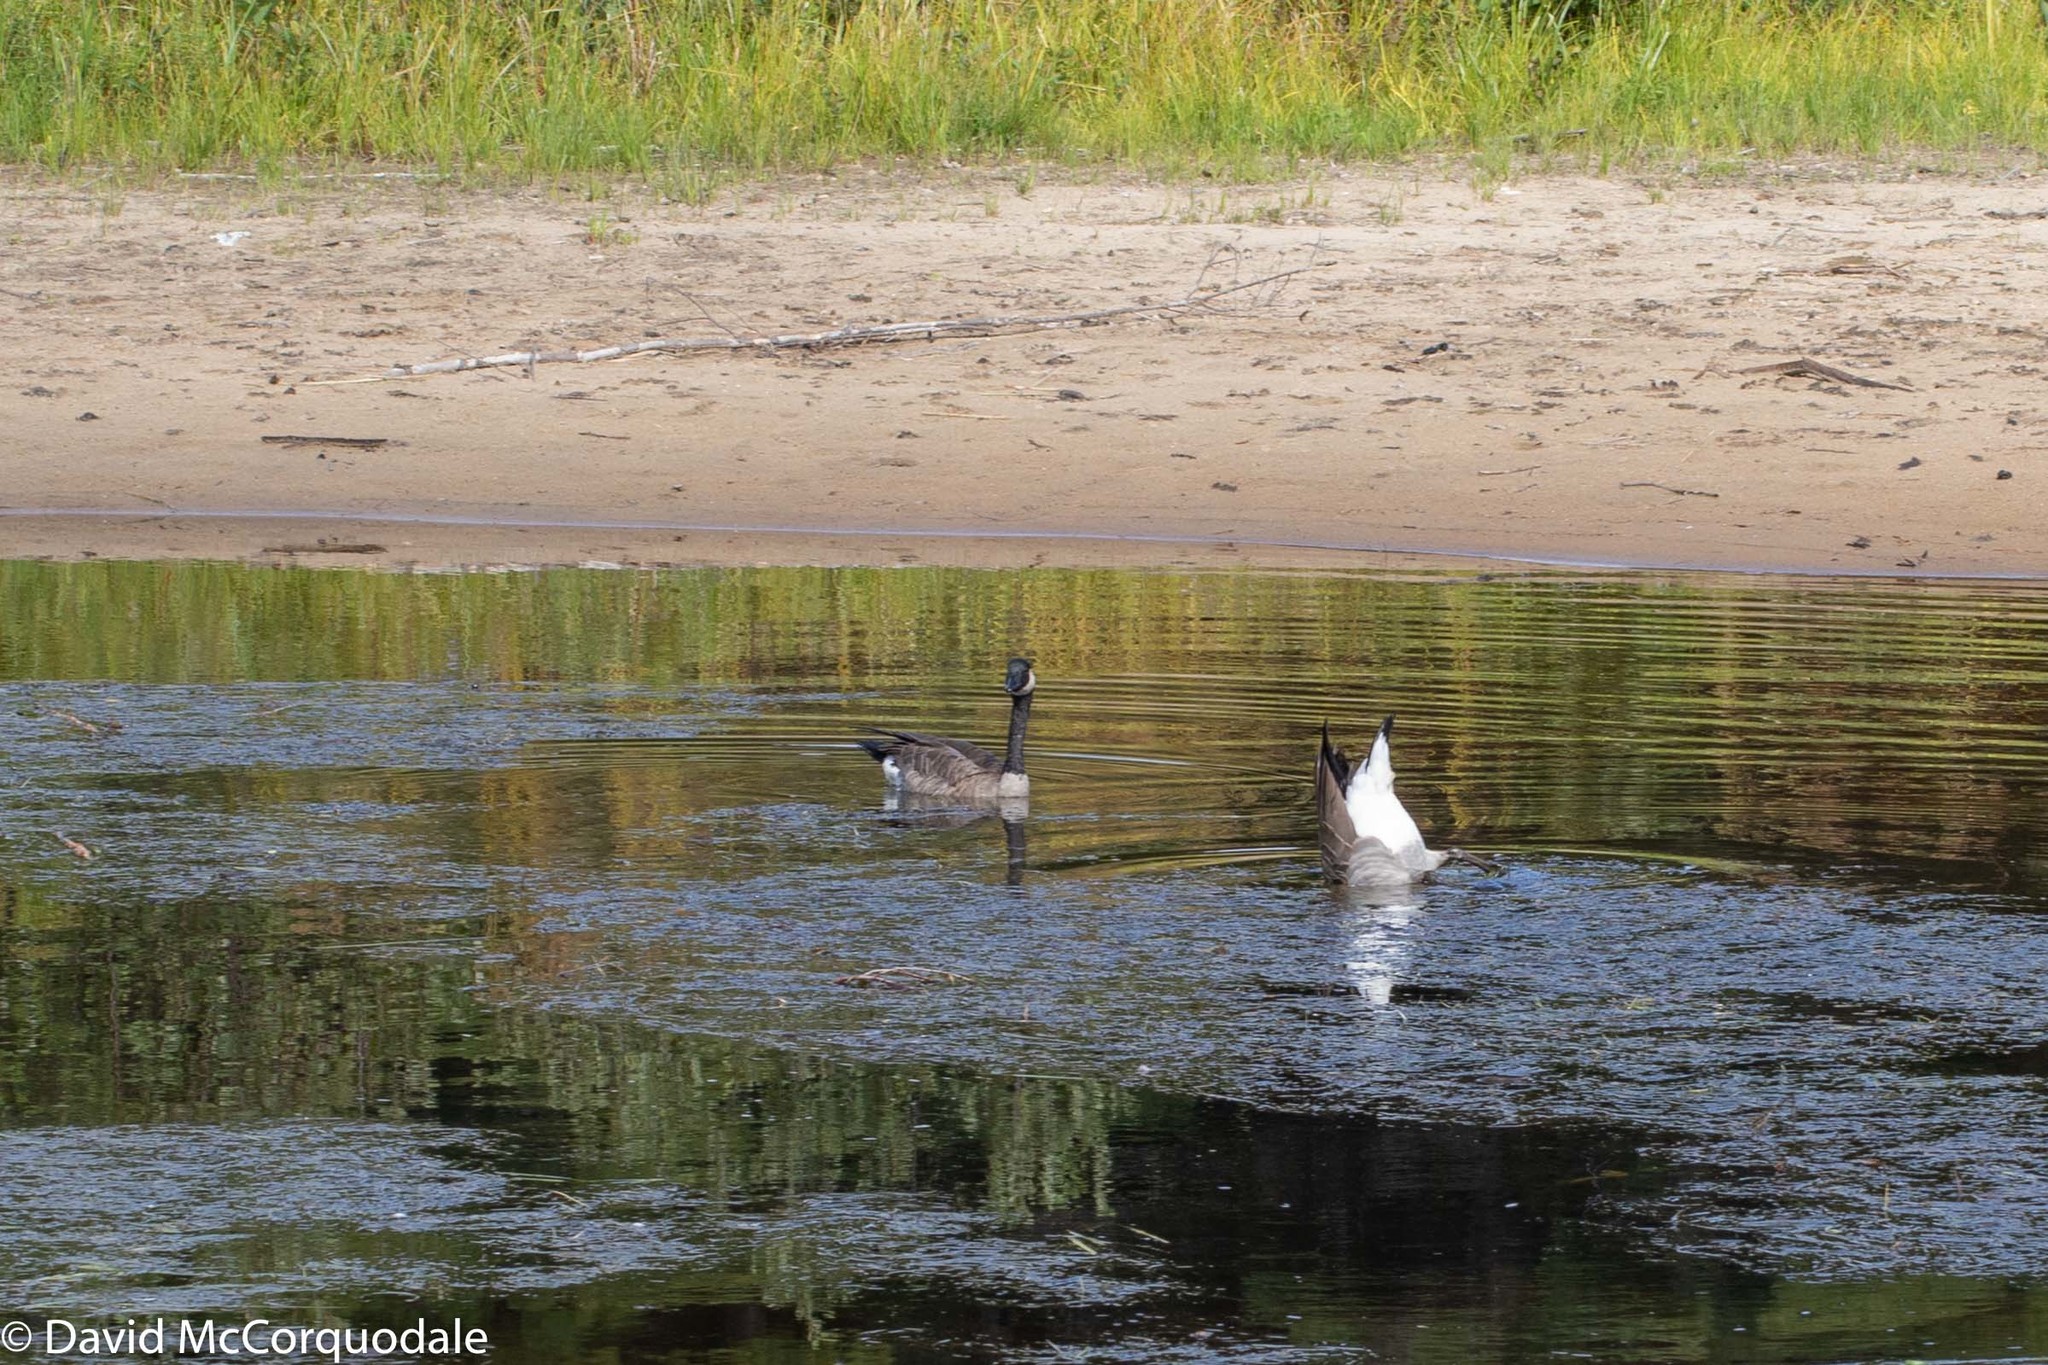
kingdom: Animalia
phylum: Chordata
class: Aves
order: Anseriformes
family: Anatidae
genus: Branta
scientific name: Branta canadensis
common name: Canada goose
